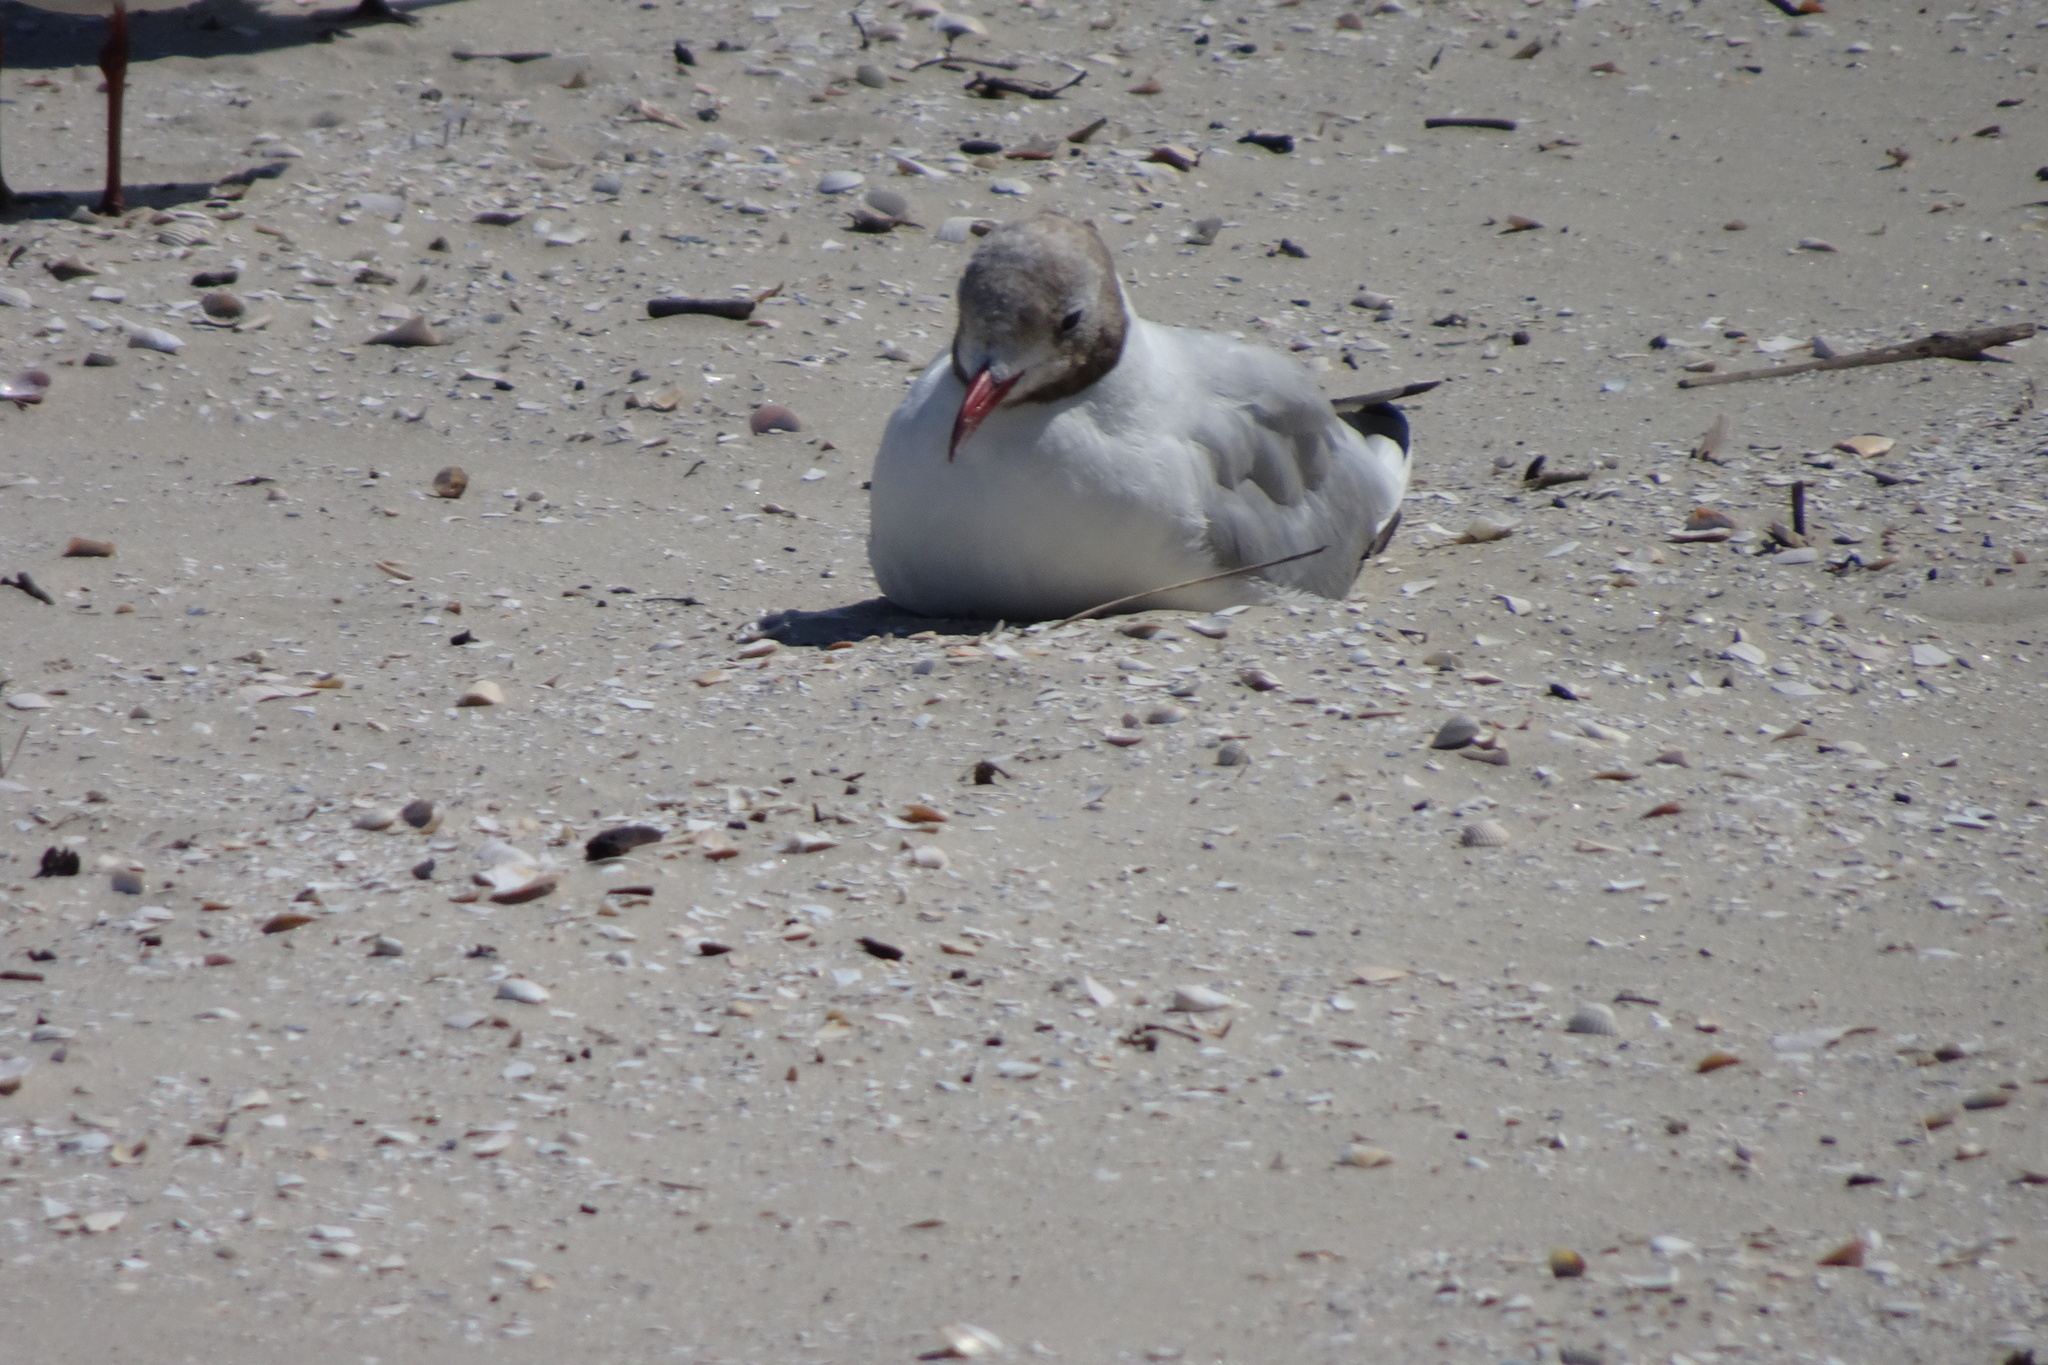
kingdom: Animalia
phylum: Chordata
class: Aves
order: Charadriiformes
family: Laridae
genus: Chroicocephalus
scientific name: Chroicocephalus ridibundus
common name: Black-headed gull
